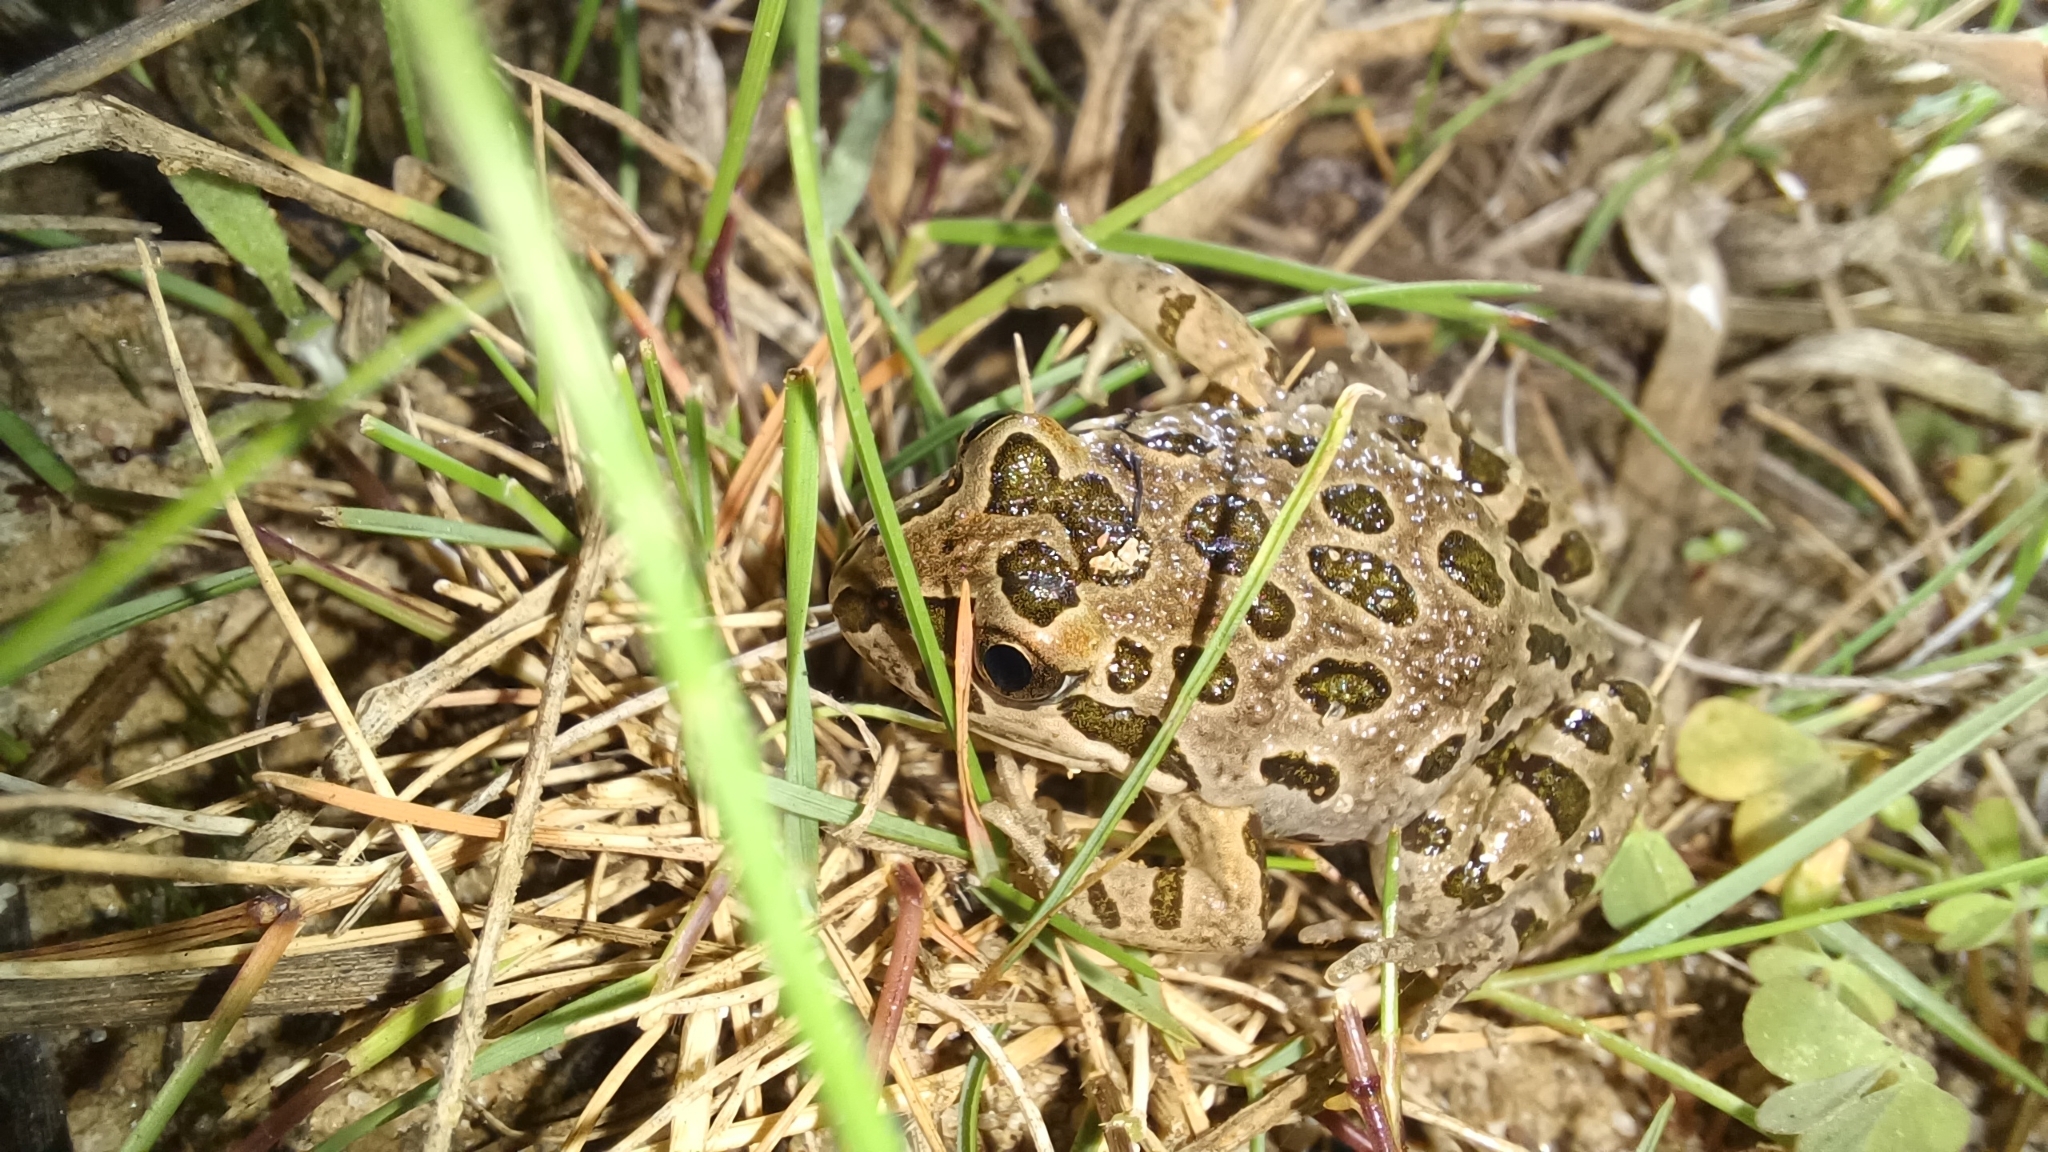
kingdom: Animalia
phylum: Chordata
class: Amphibia
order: Anura
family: Limnodynastidae
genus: Limnodynastes
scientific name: Limnodynastes tasmaniensis
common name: Spotted marsh frog
